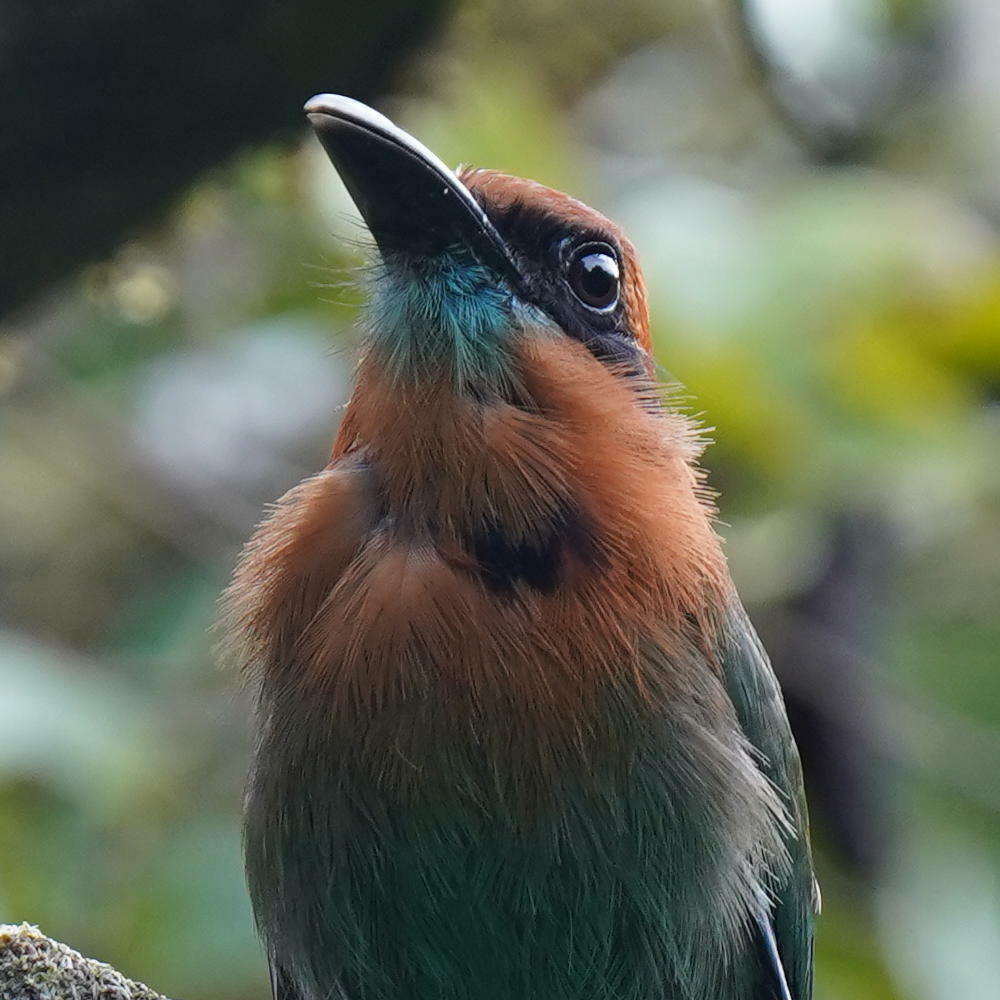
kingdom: Animalia
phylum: Chordata
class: Aves
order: Coraciiformes
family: Momotidae
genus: Electron
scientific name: Electron platyrhynchum
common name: Broad-billed motmot
